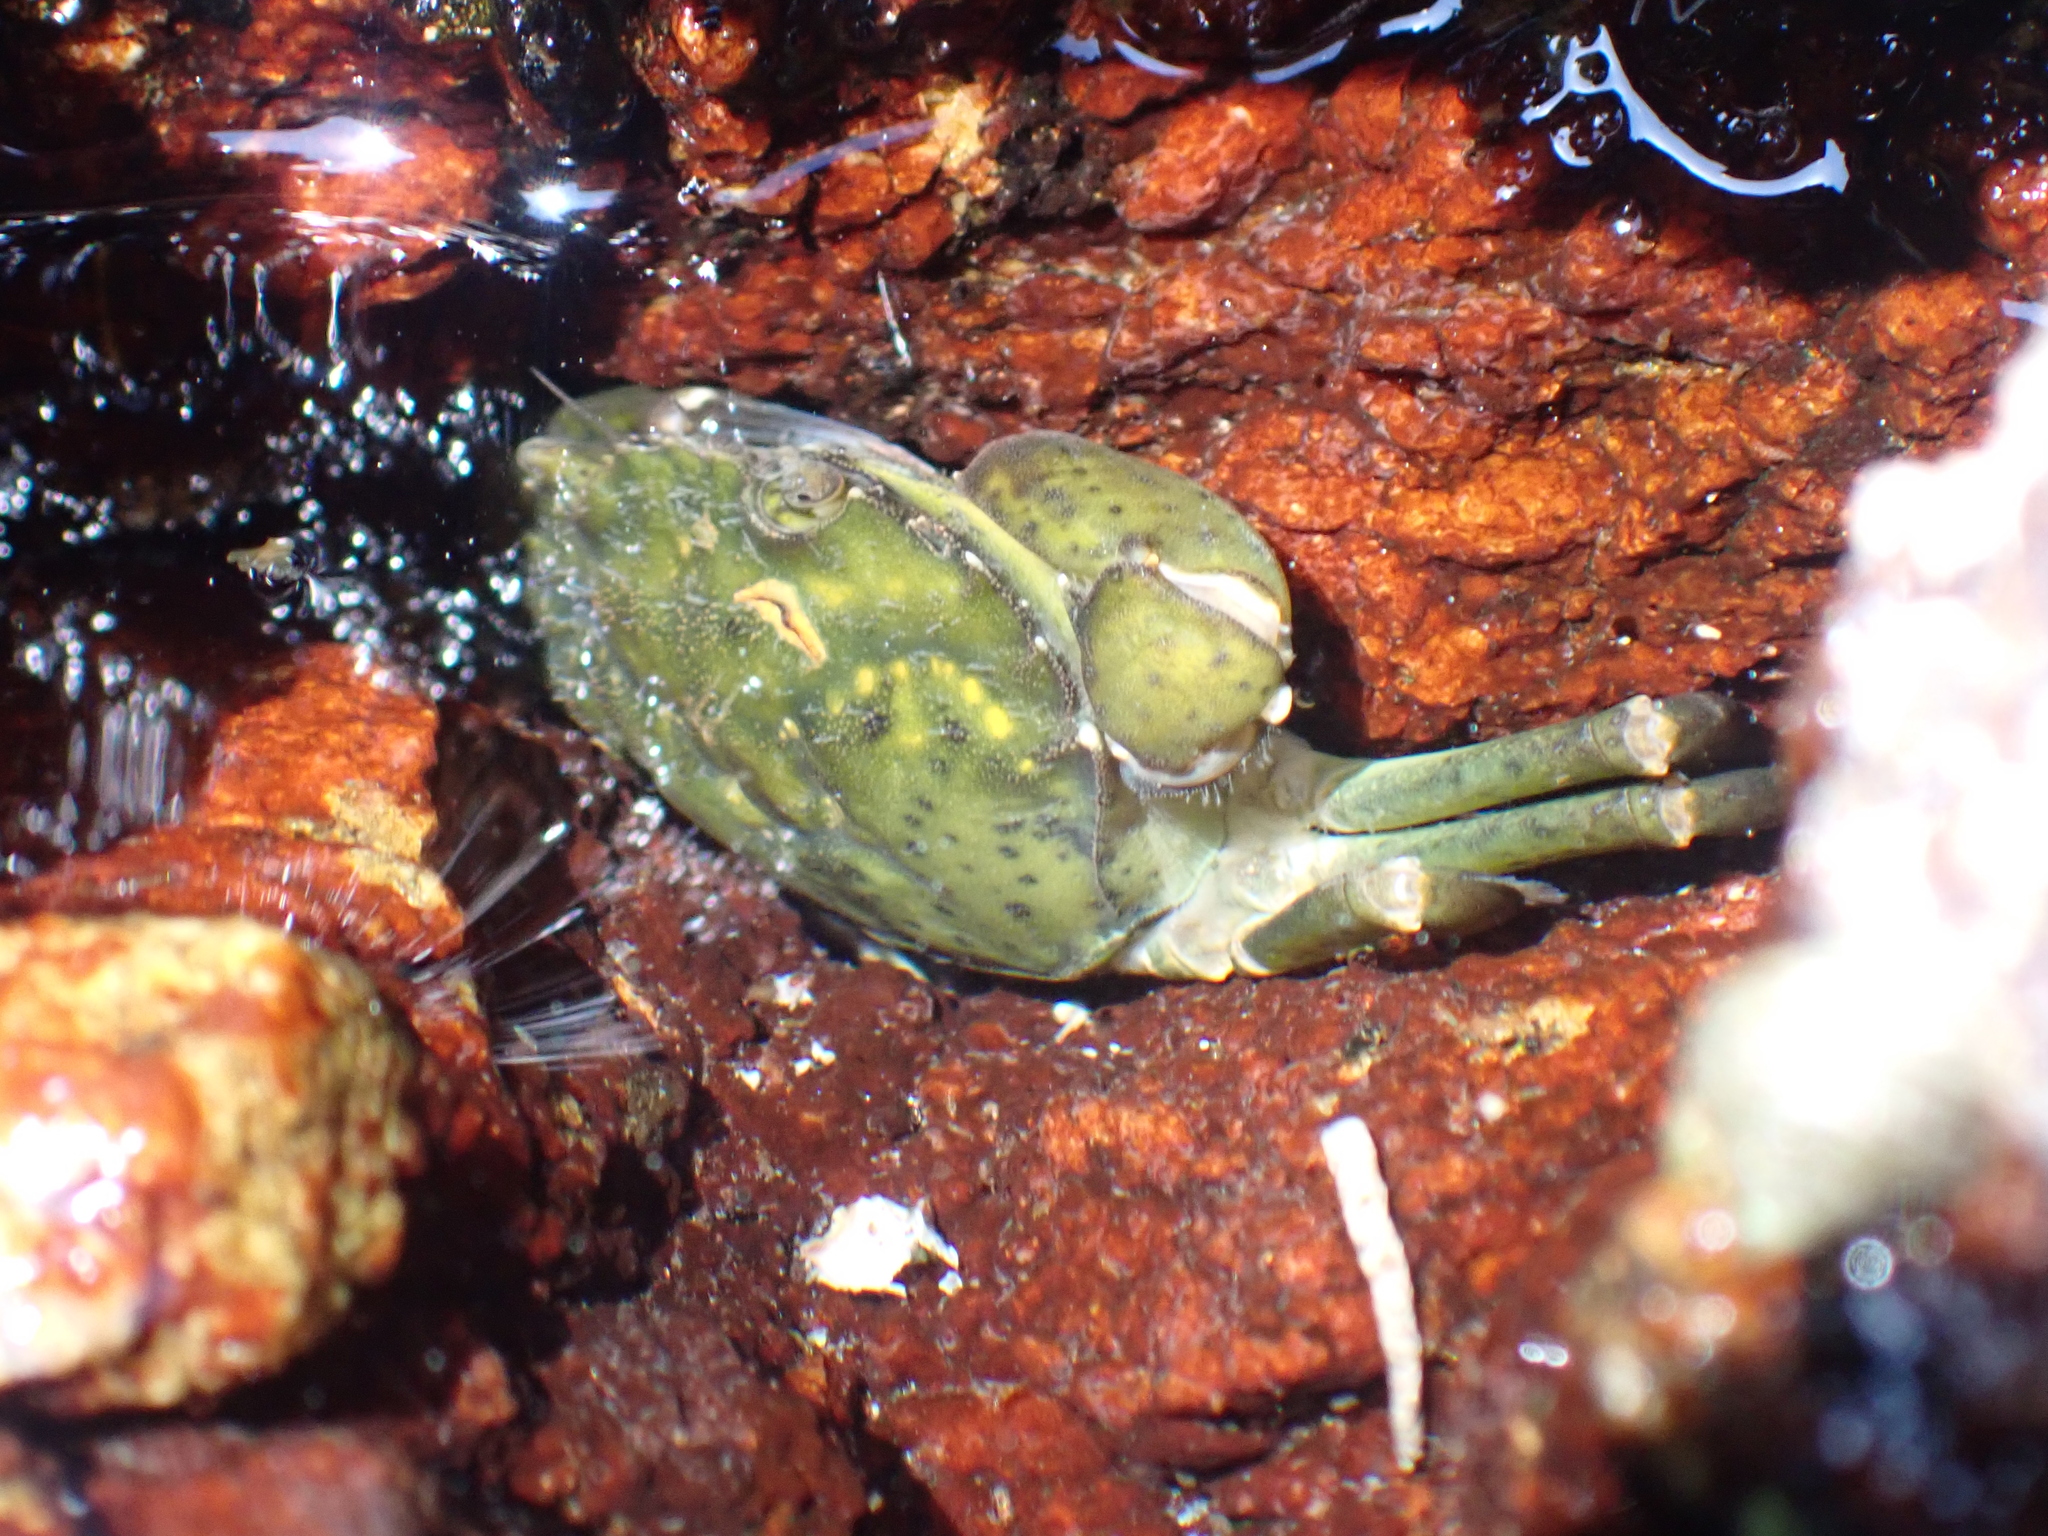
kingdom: Animalia
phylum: Arthropoda
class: Malacostraca
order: Decapoda
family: Carcinidae
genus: Carcinus
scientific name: Carcinus maenas
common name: European green crab
